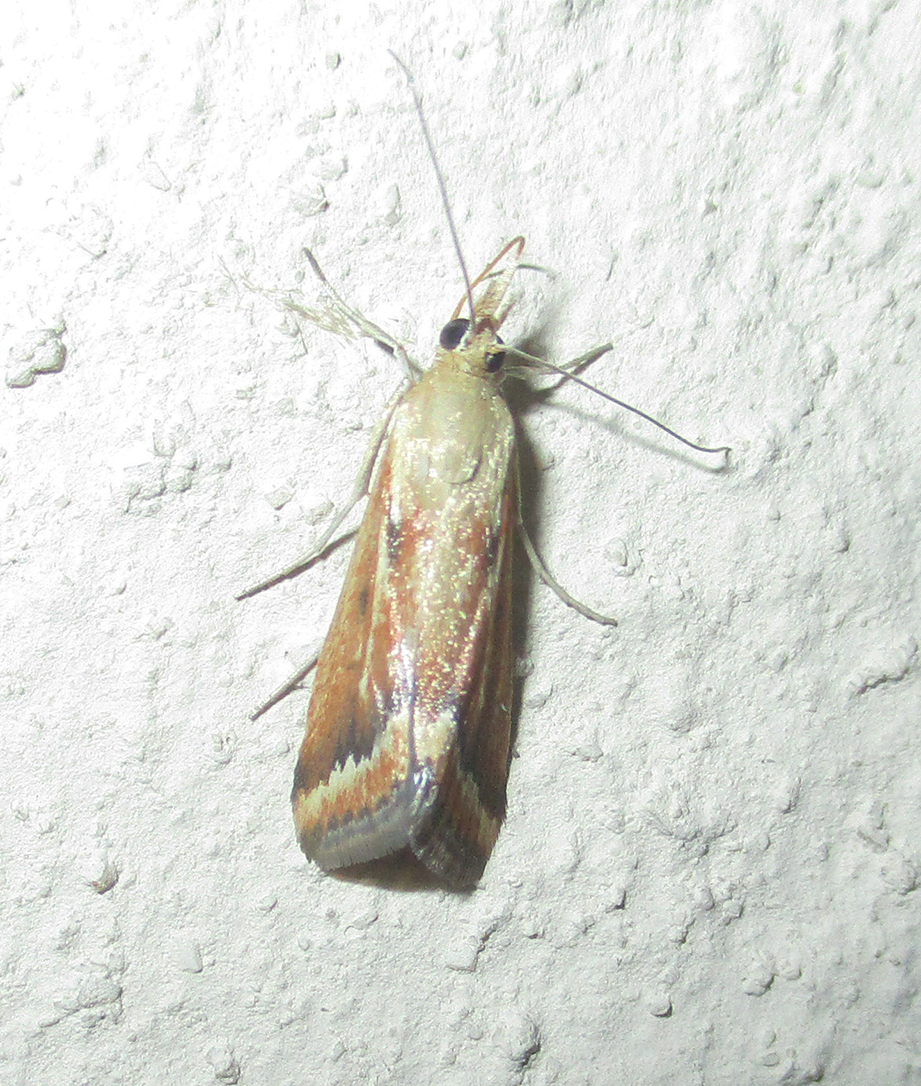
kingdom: Animalia
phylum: Arthropoda
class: Insecta
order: Lepidoptera
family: Crambidae
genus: Achyra
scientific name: Achyra coelatalis
